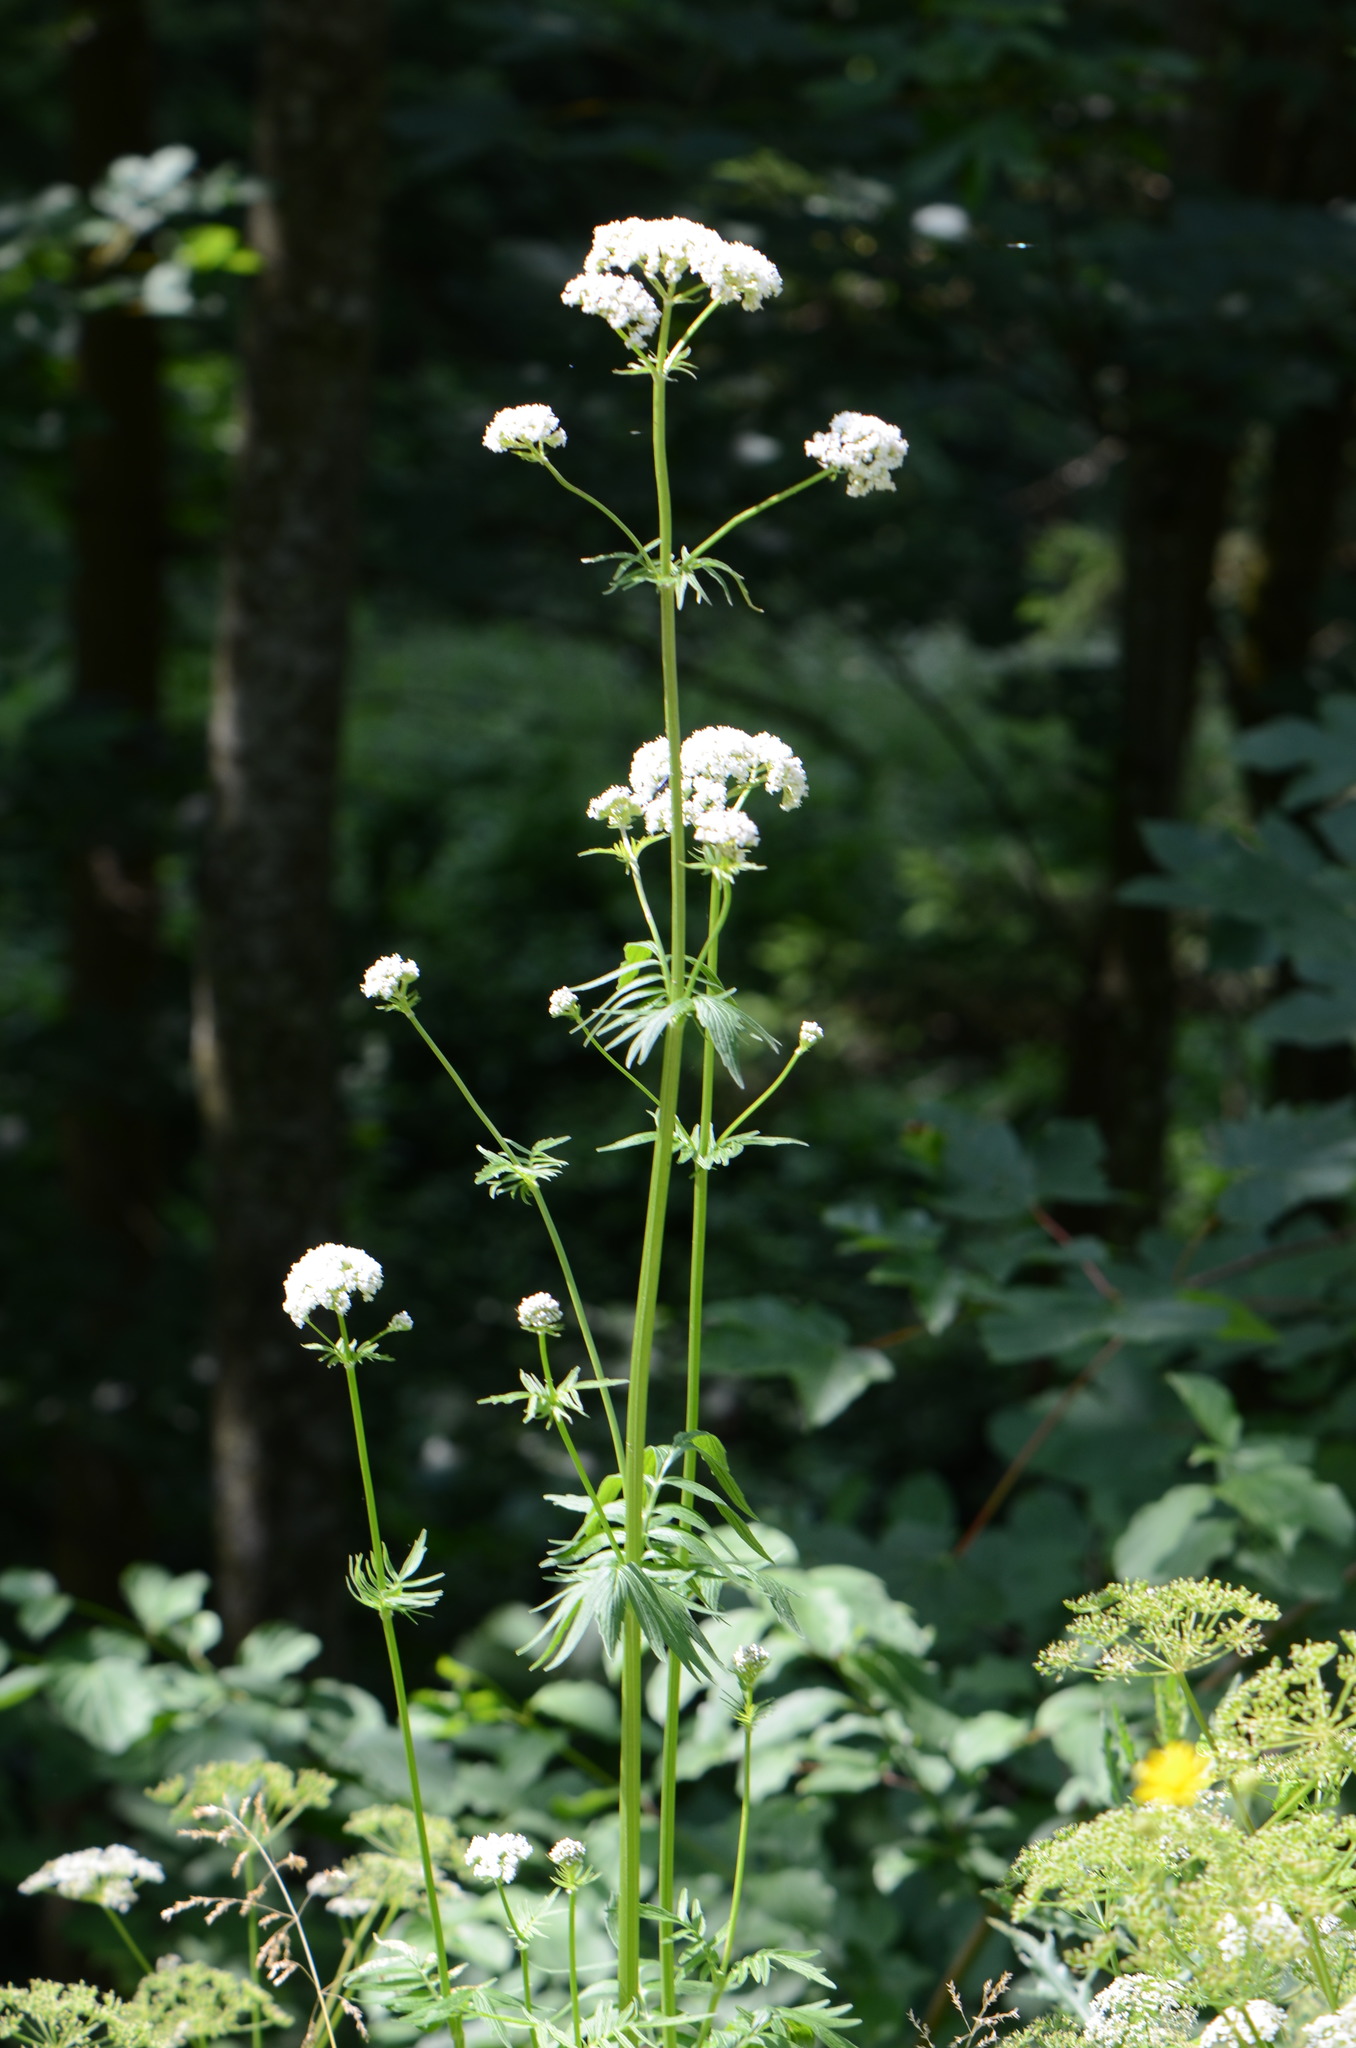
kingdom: Plantae
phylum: Tracheophyta
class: Magnoliopsida
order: Dipsacales
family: Caprifoliaceae
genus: Valeriana
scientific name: Valeriana officinalis
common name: Common valerian
